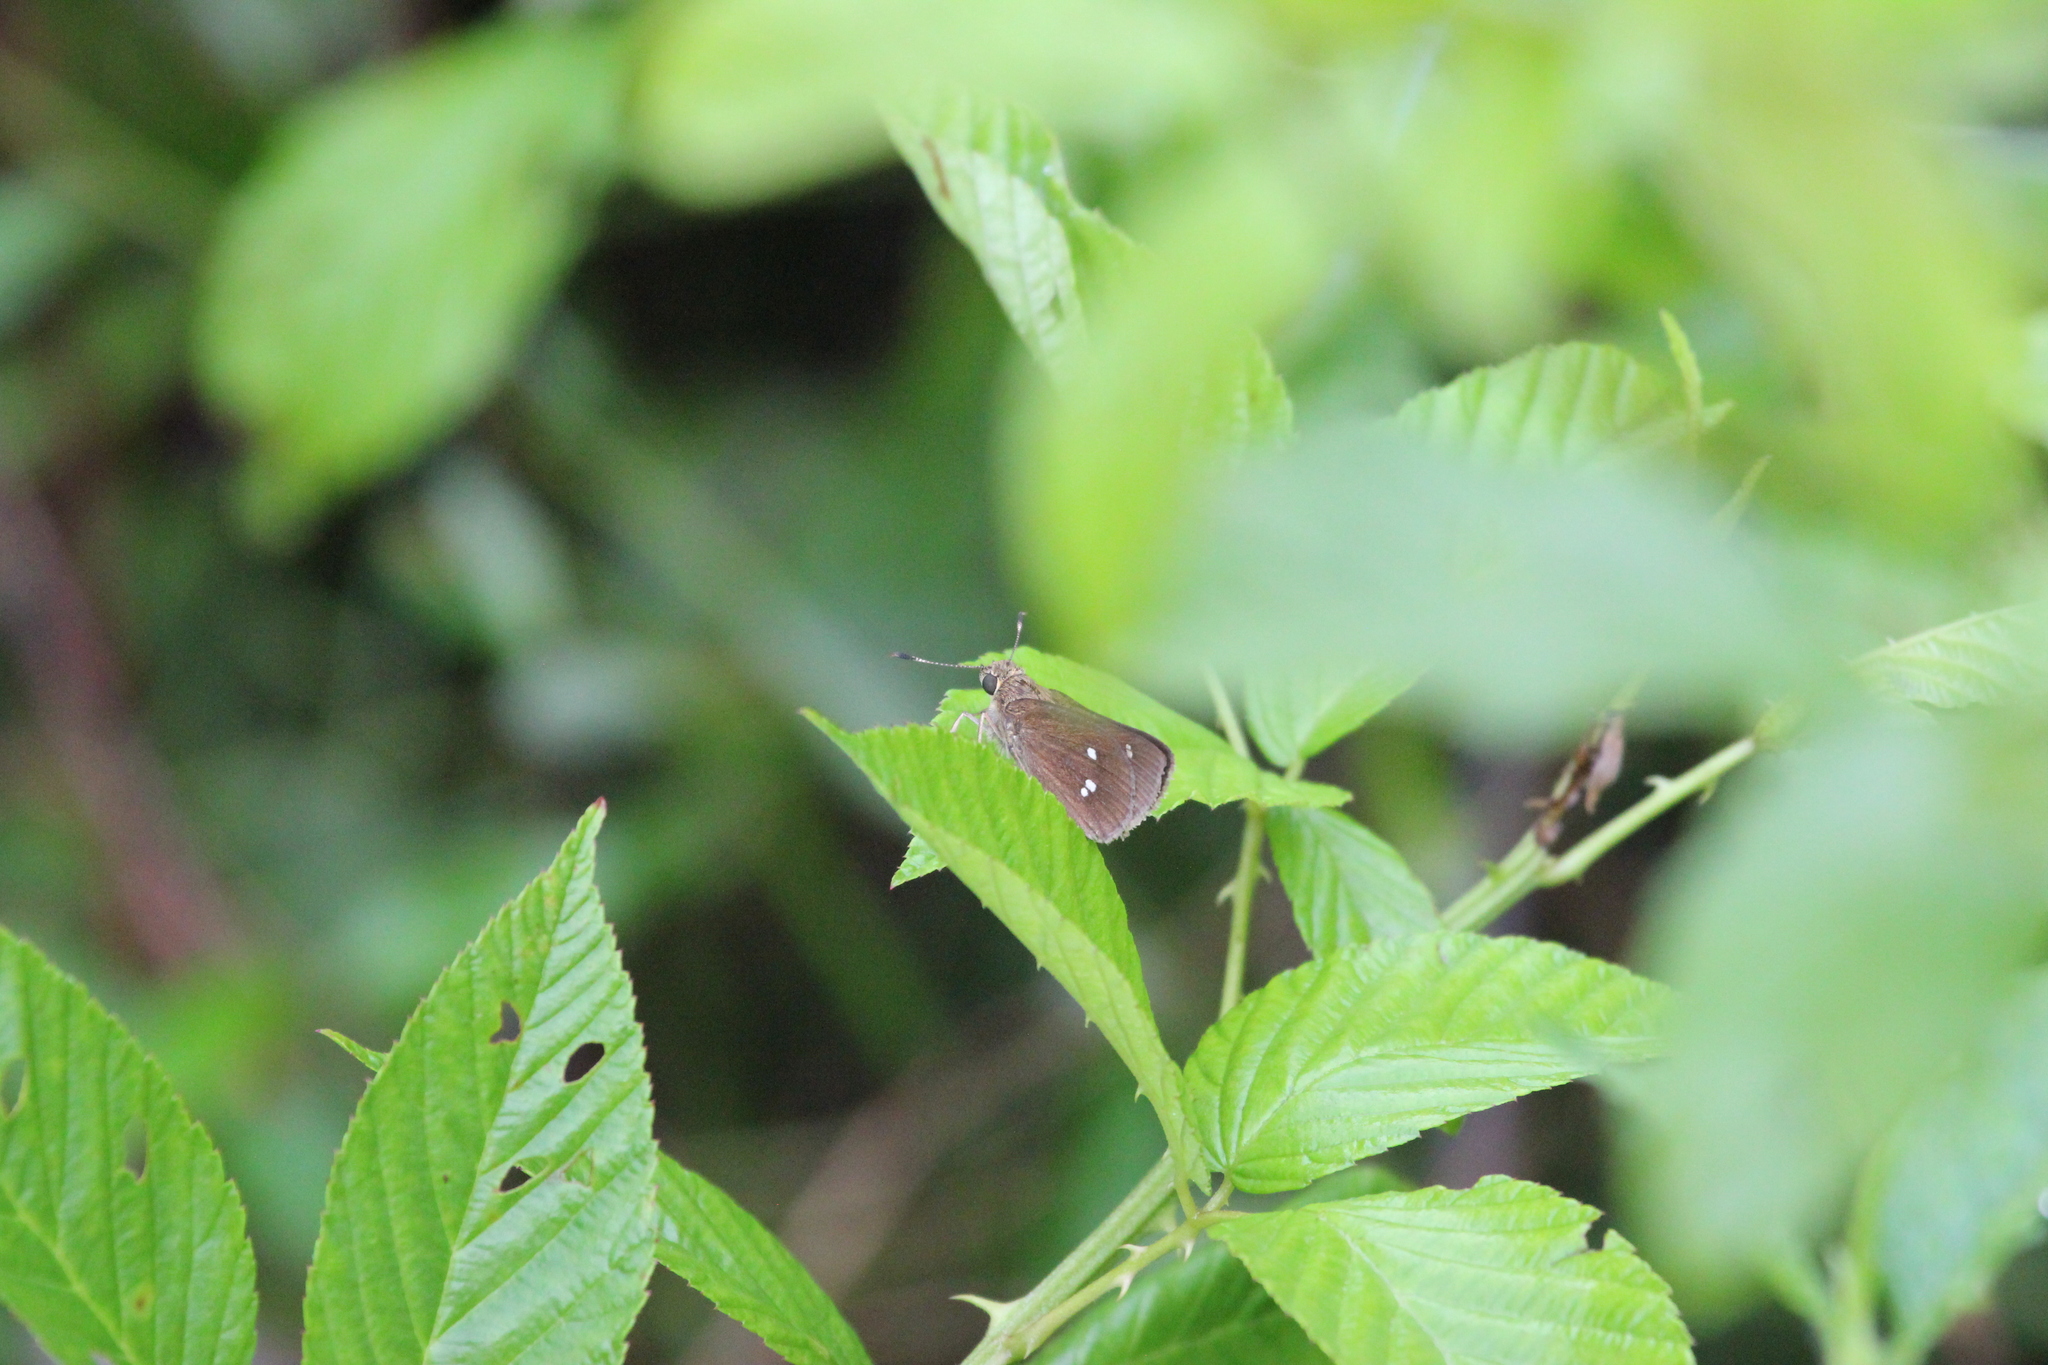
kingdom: Animalia
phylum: Arthropoda
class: Insecta
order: Lepidoptera
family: Hesperiidae
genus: Oligoria
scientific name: Oligoria maculata
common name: Twin-spot skipper
